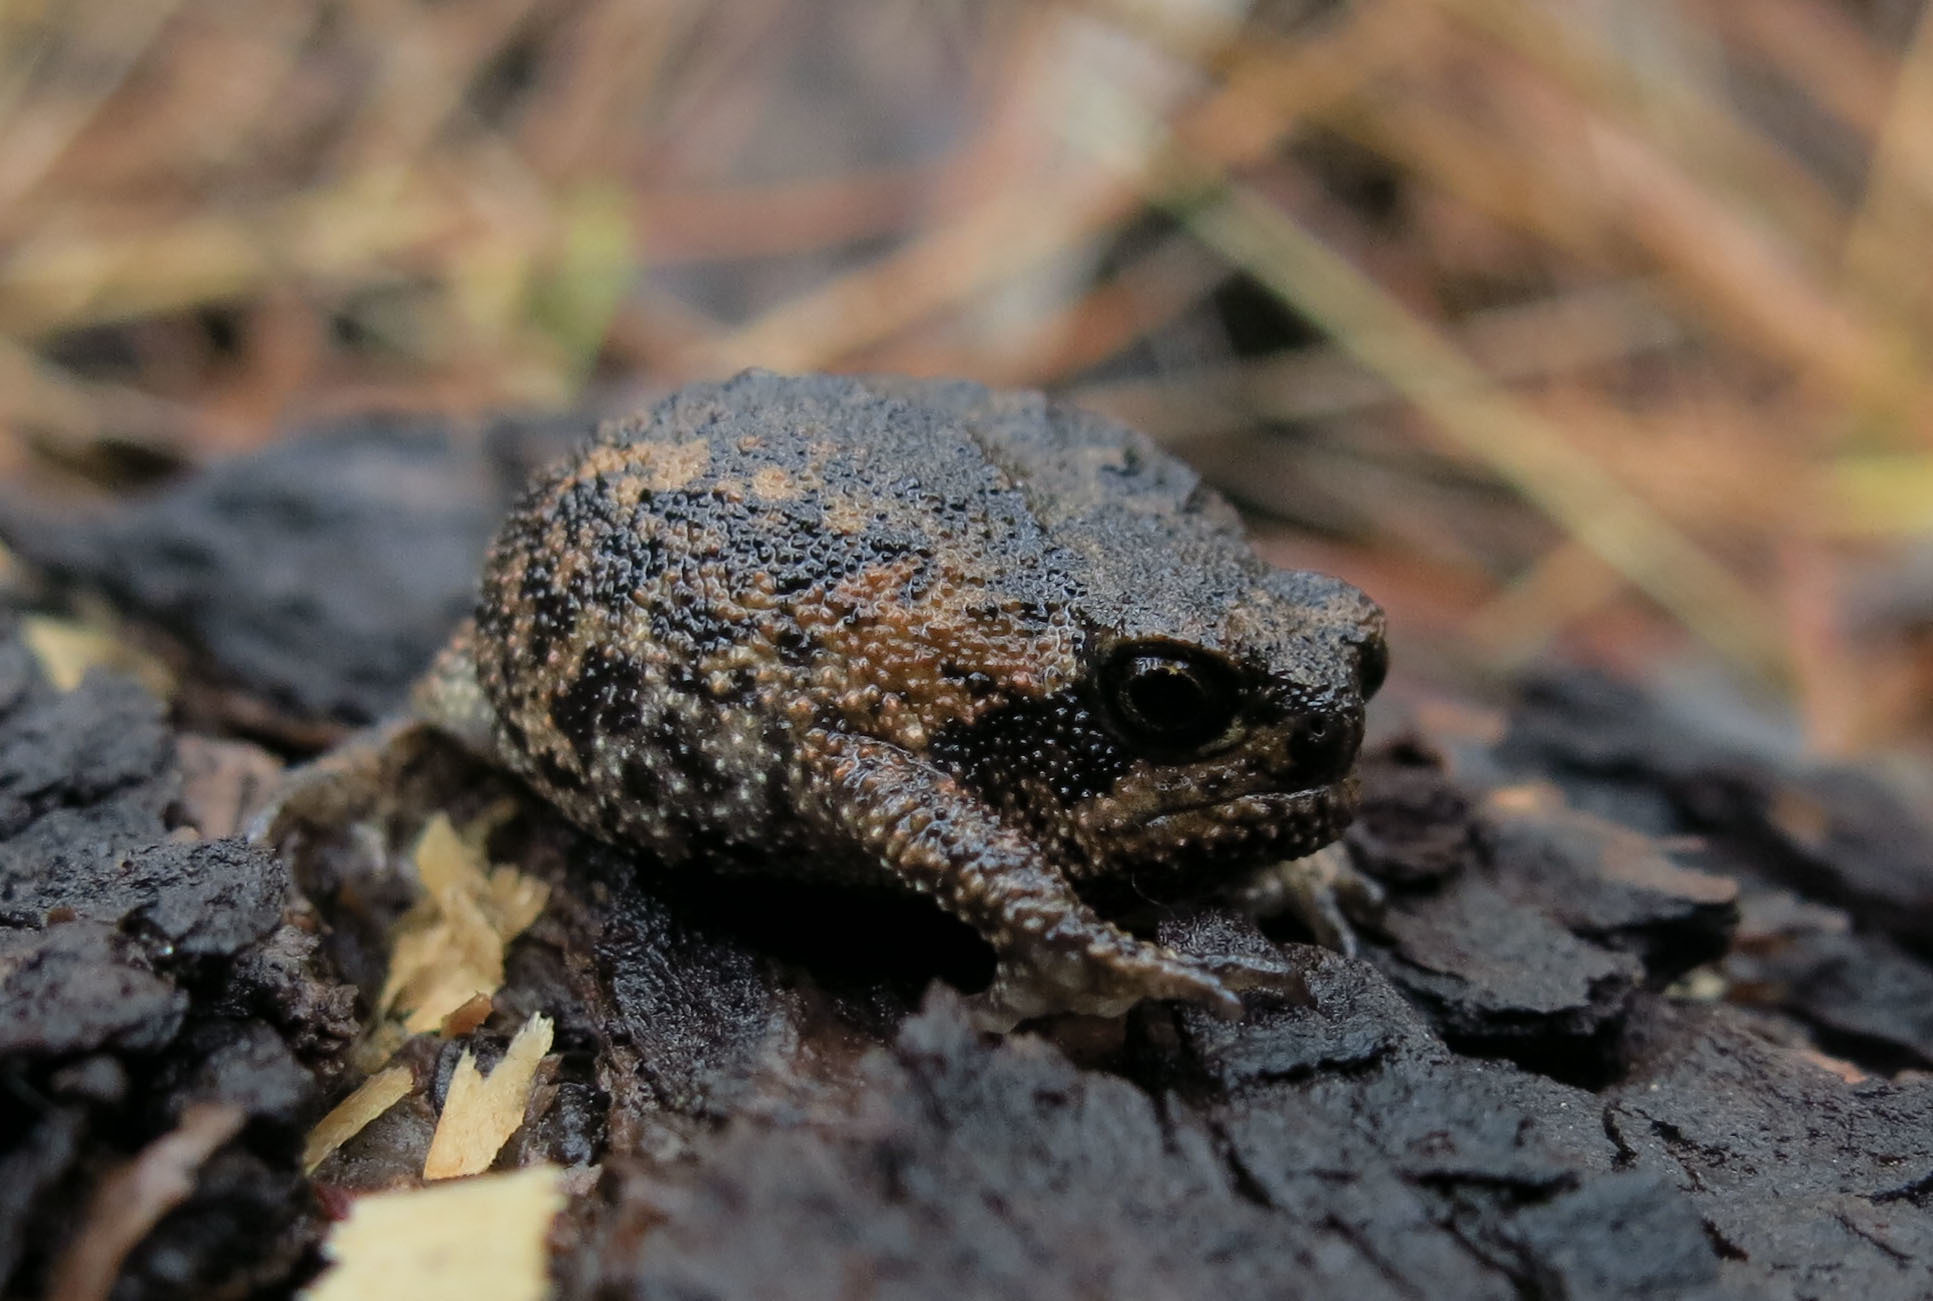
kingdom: Animalia
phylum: Chordata
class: Amphibia
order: Anura
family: Brevicipitidae
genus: Breviceps
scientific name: Breviceps montanus
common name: Mountain rain frog
